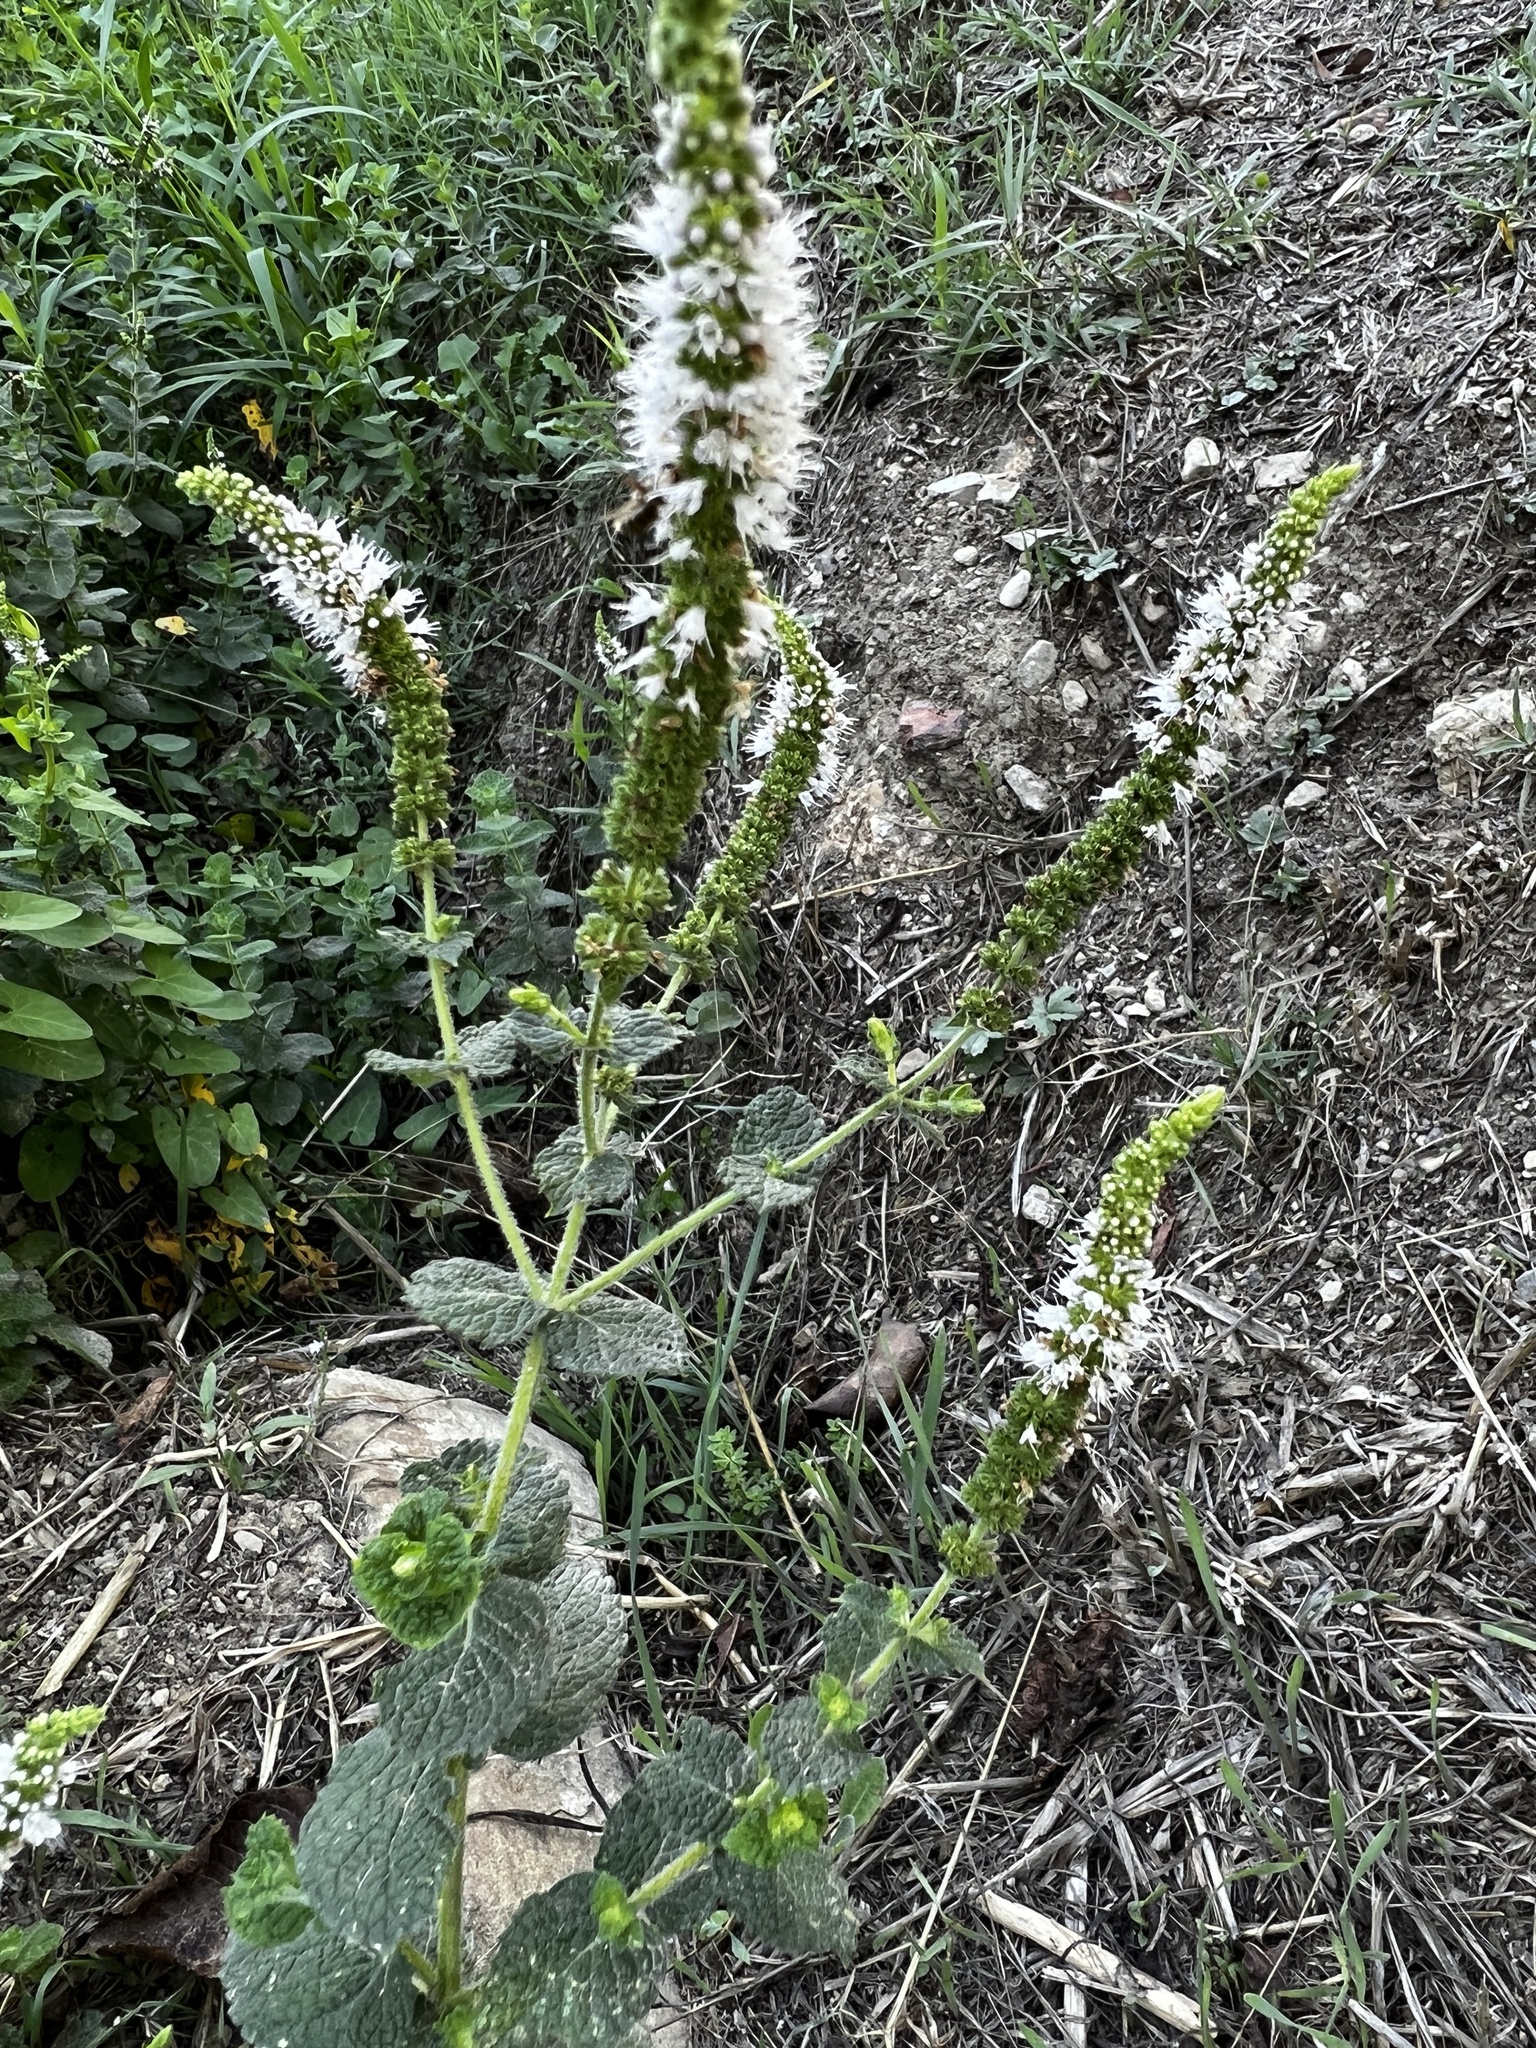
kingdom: Plantae
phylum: Tracheophyta
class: Magnoliopsida
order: Lamiales
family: Lamiaceae
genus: Mentha
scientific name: Mentha suaveolens
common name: Apple mint
